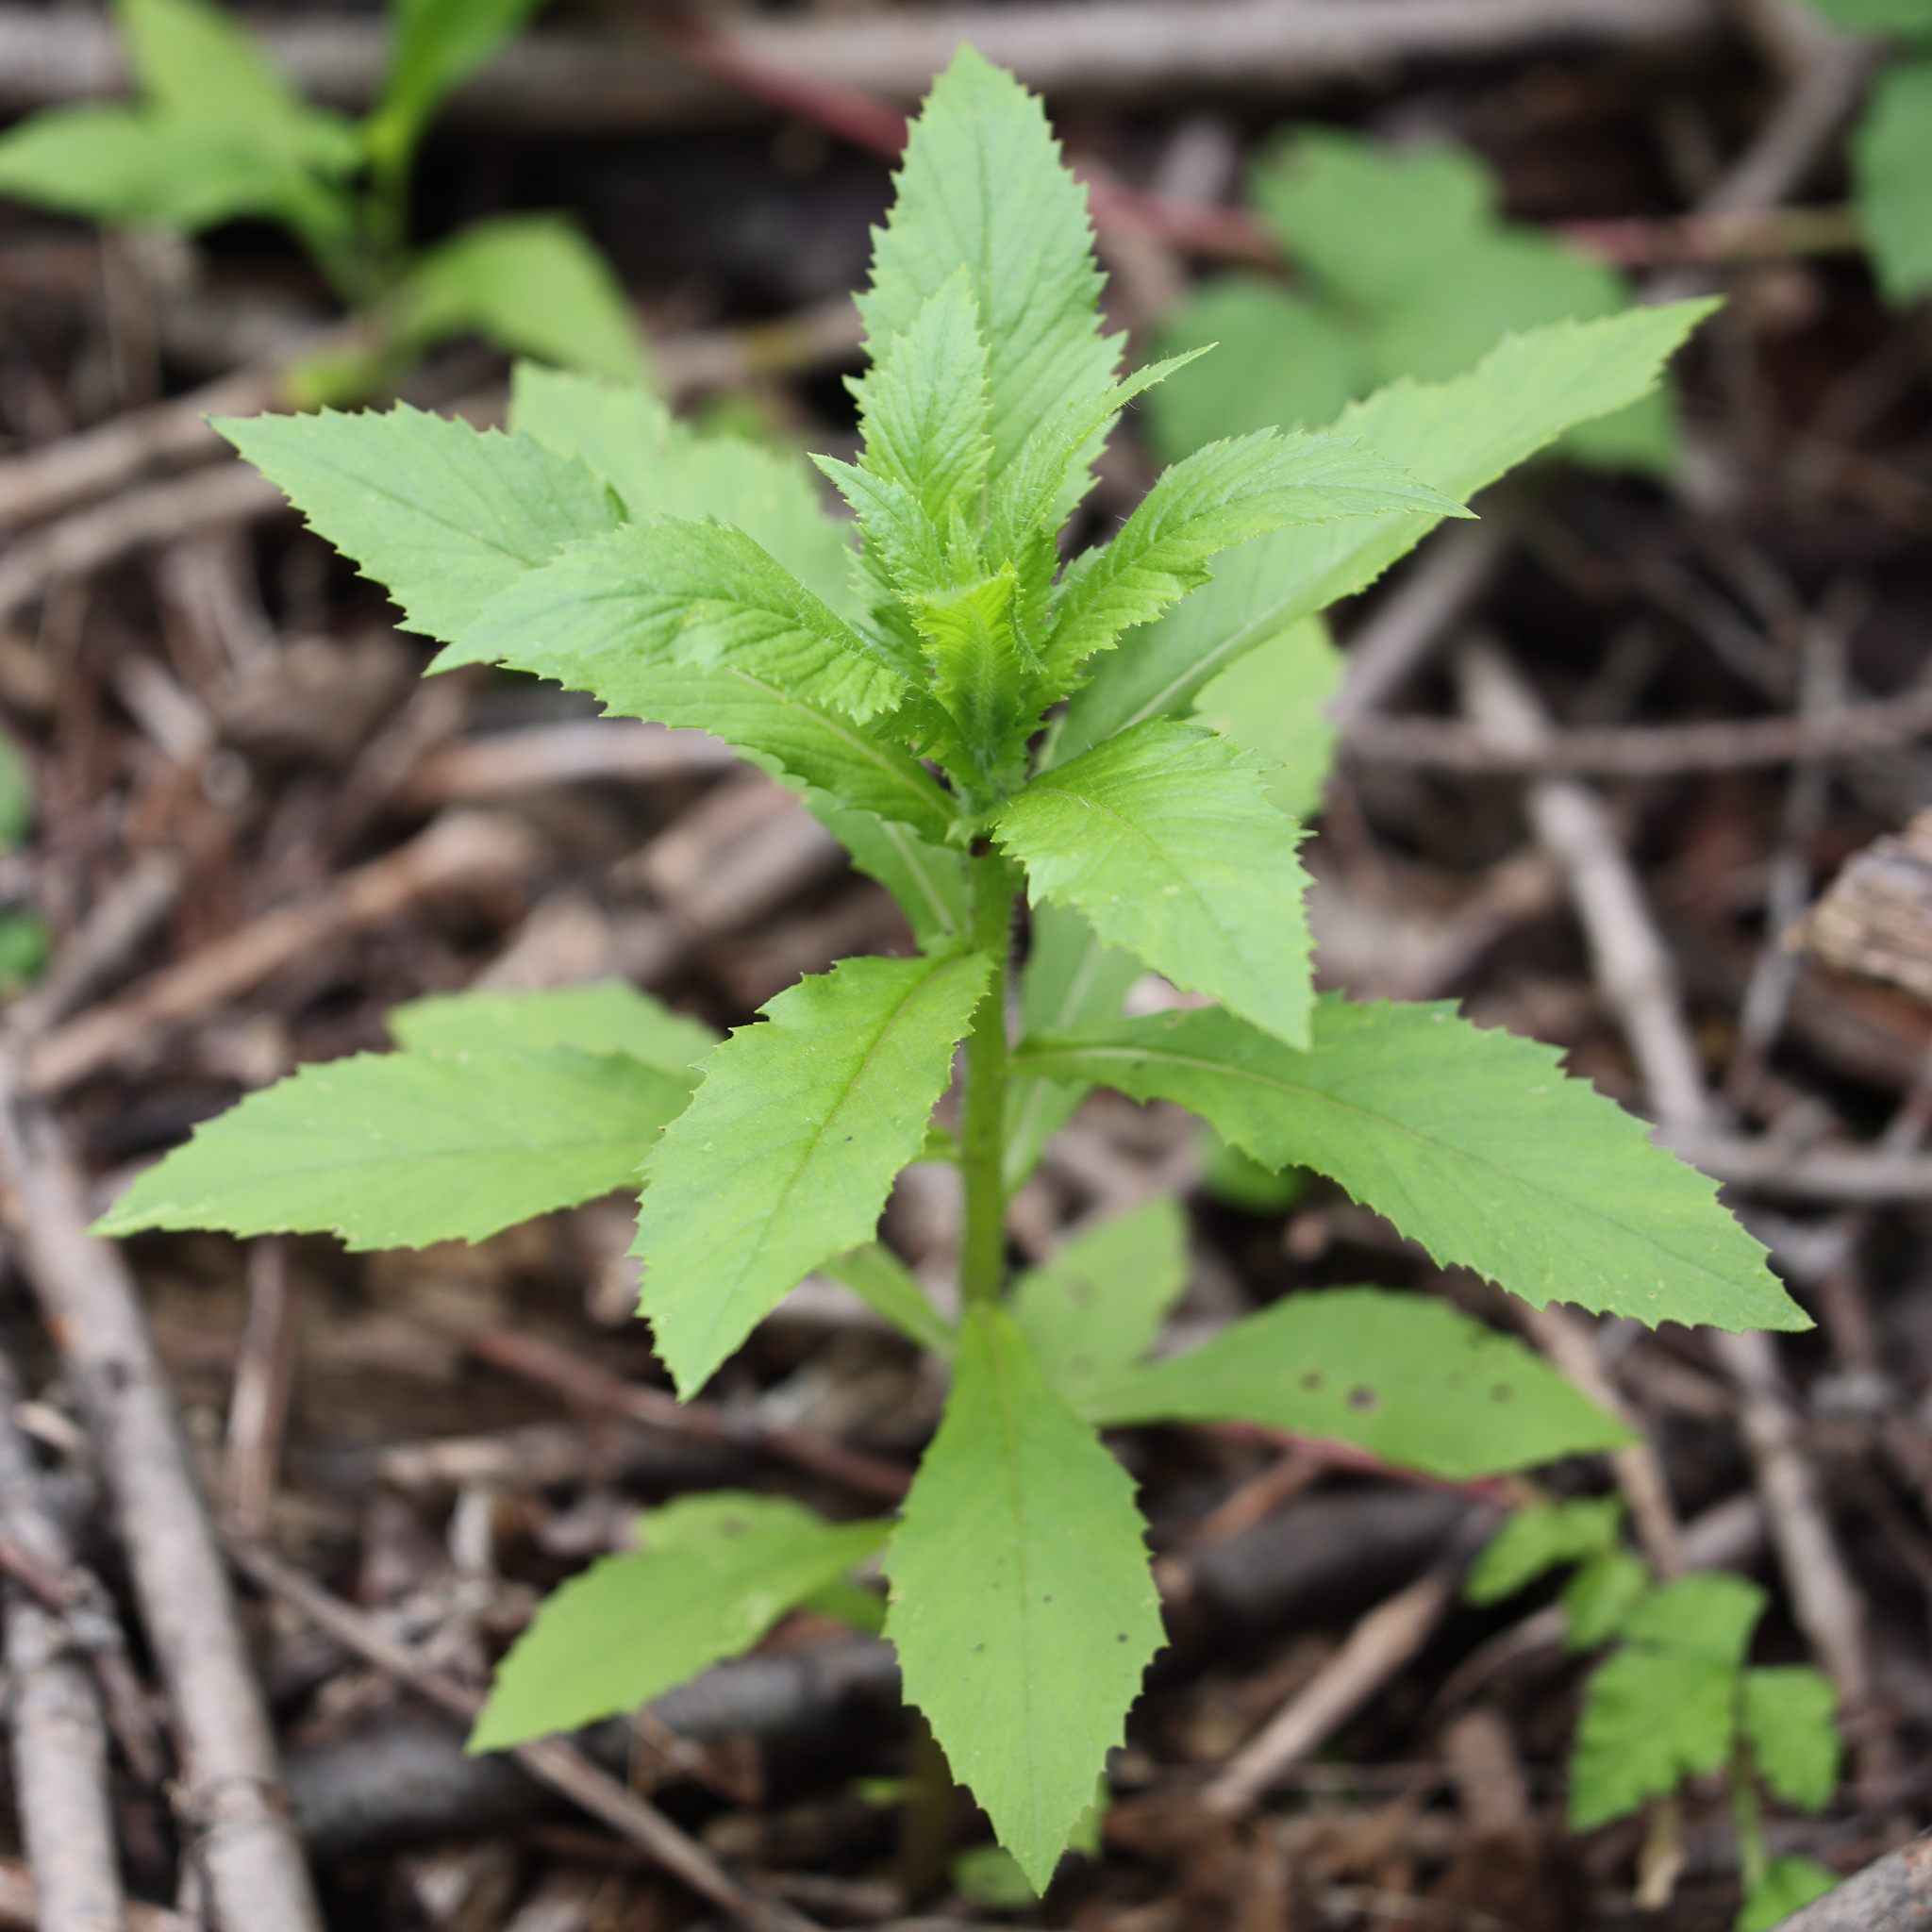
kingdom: Plantae
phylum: Tracheophyta
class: Magnoliopsida
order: Asterales
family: Asteraceae
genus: Erechtites
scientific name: Erechtites hieraciifolius
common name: American burnweed
